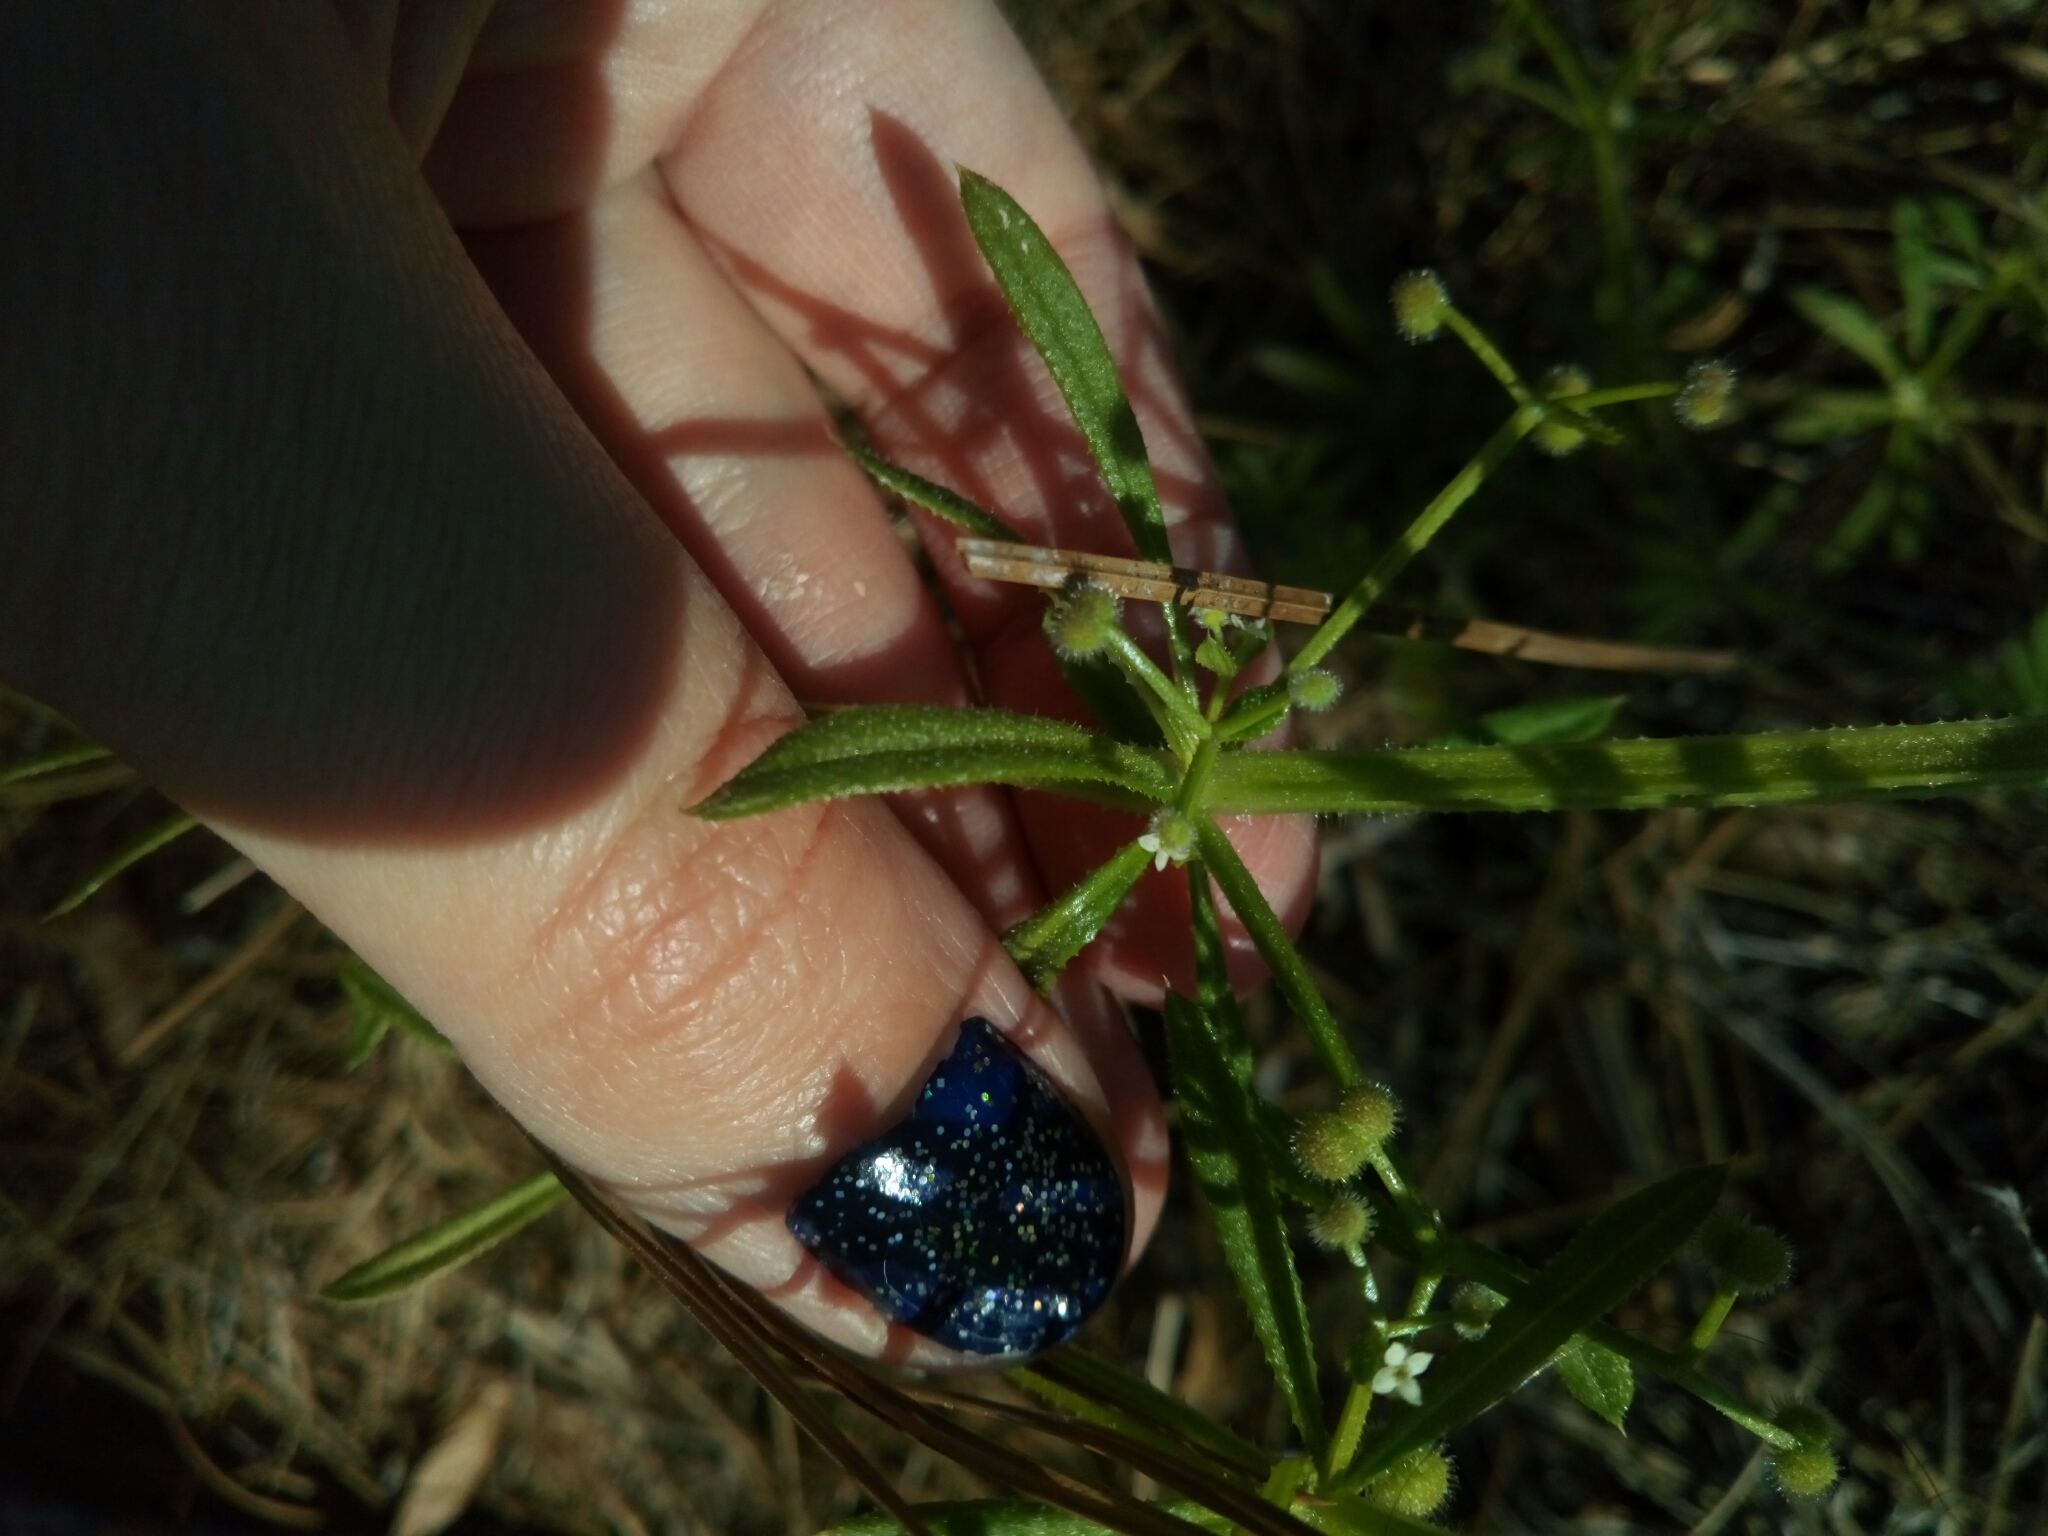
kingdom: Plantae
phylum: Tracheophyta
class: Magnoliopsida
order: Gentianales
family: Rubiaceae
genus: Galium
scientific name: Galium aparine
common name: Cleavers
